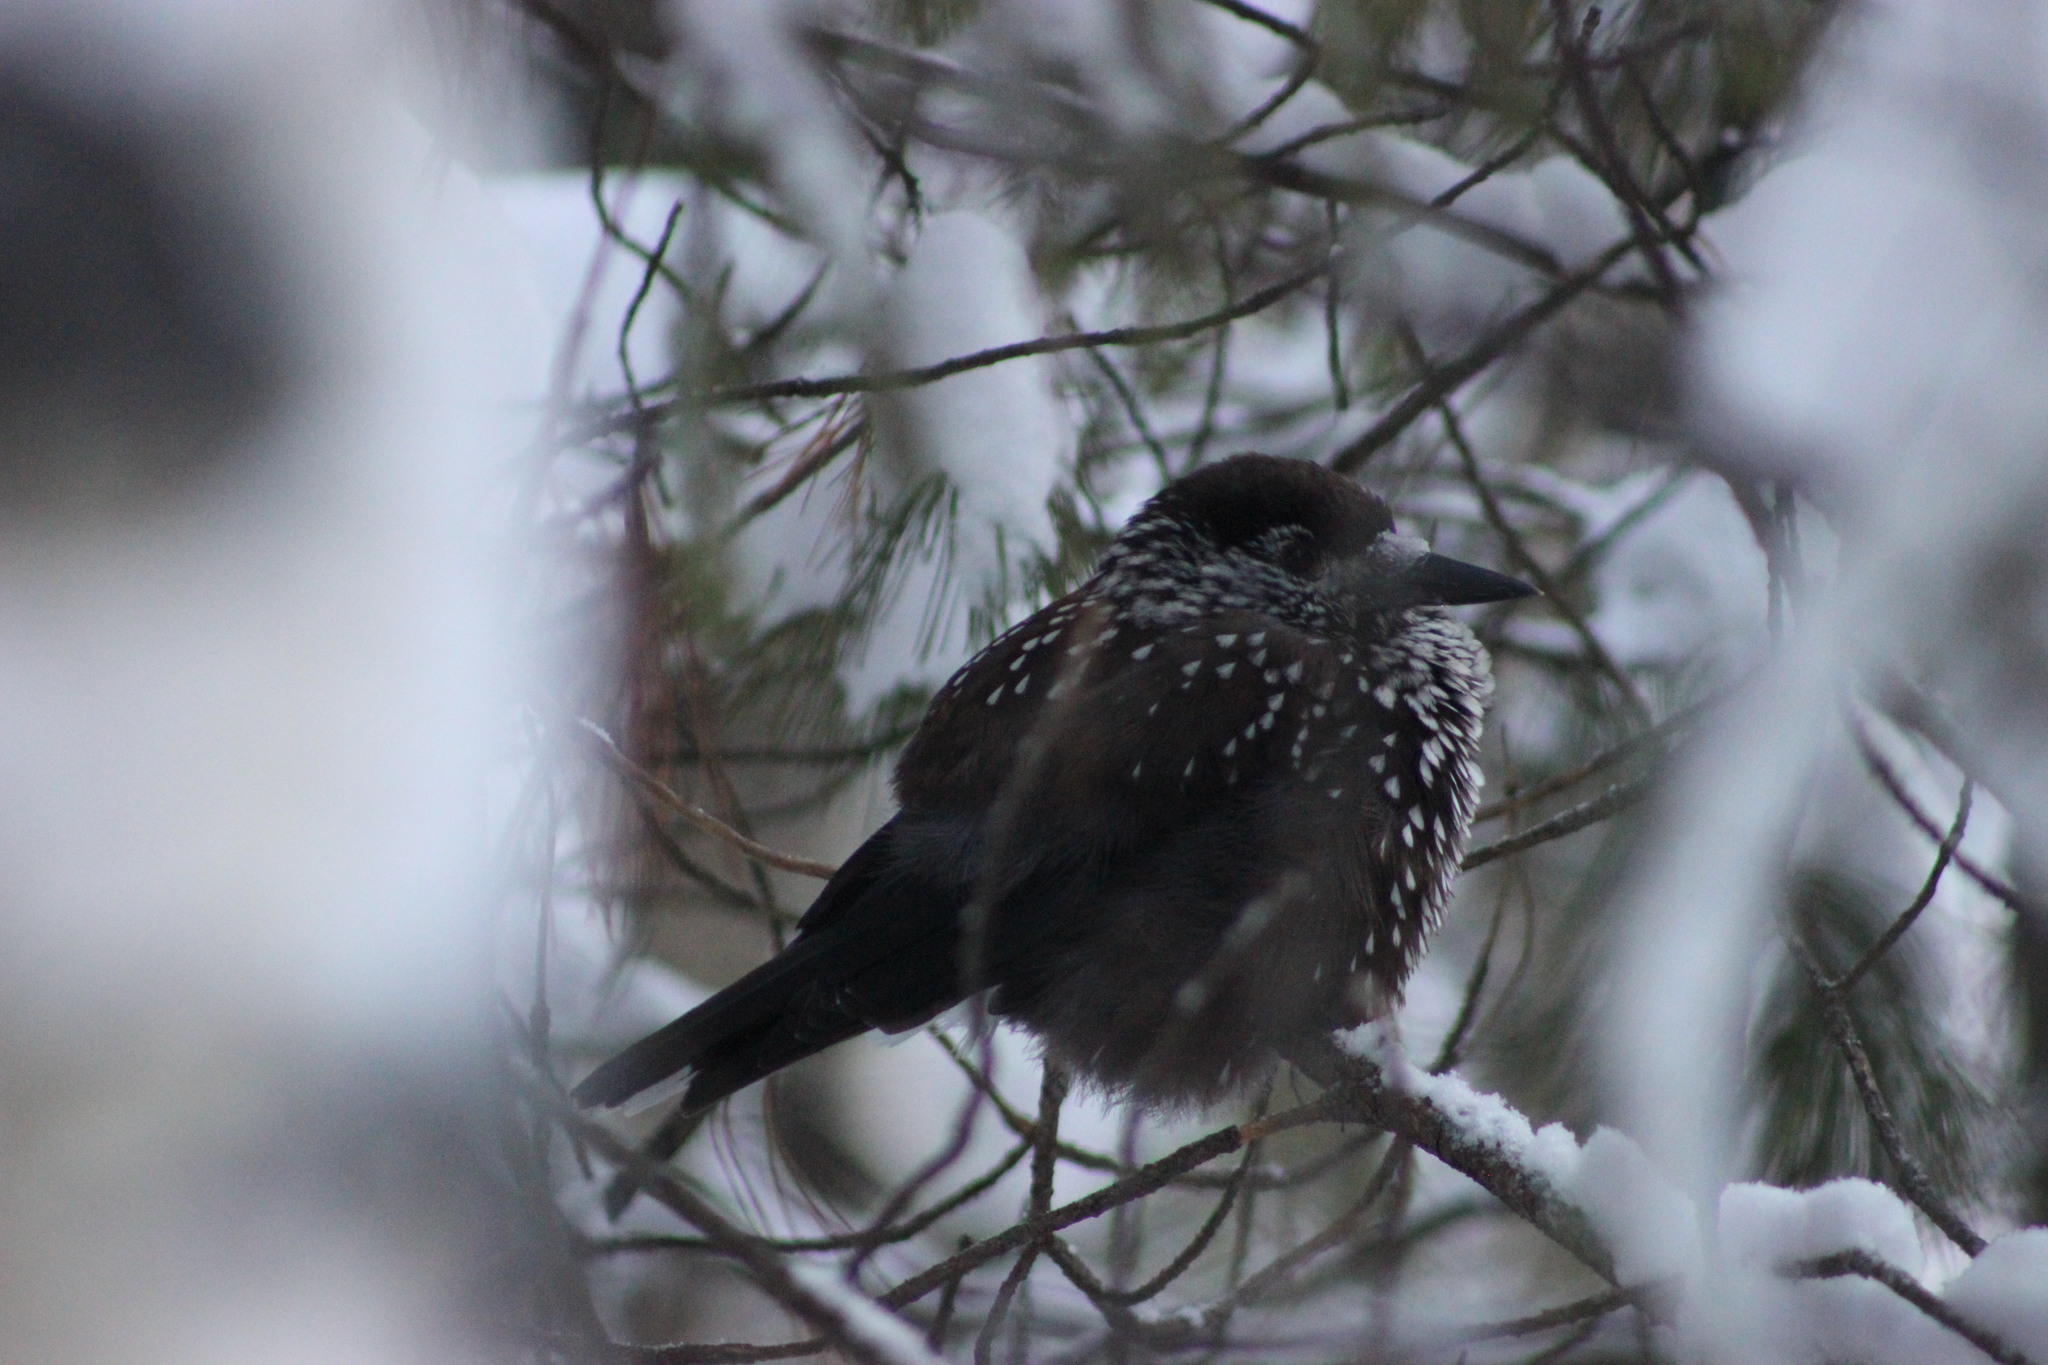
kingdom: Animalia
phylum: Chordata
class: Aves
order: Passeriformes
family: Corvidae
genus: Nucifraga
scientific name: Nucifraga caryocatactes
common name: Spotted nutcracker
